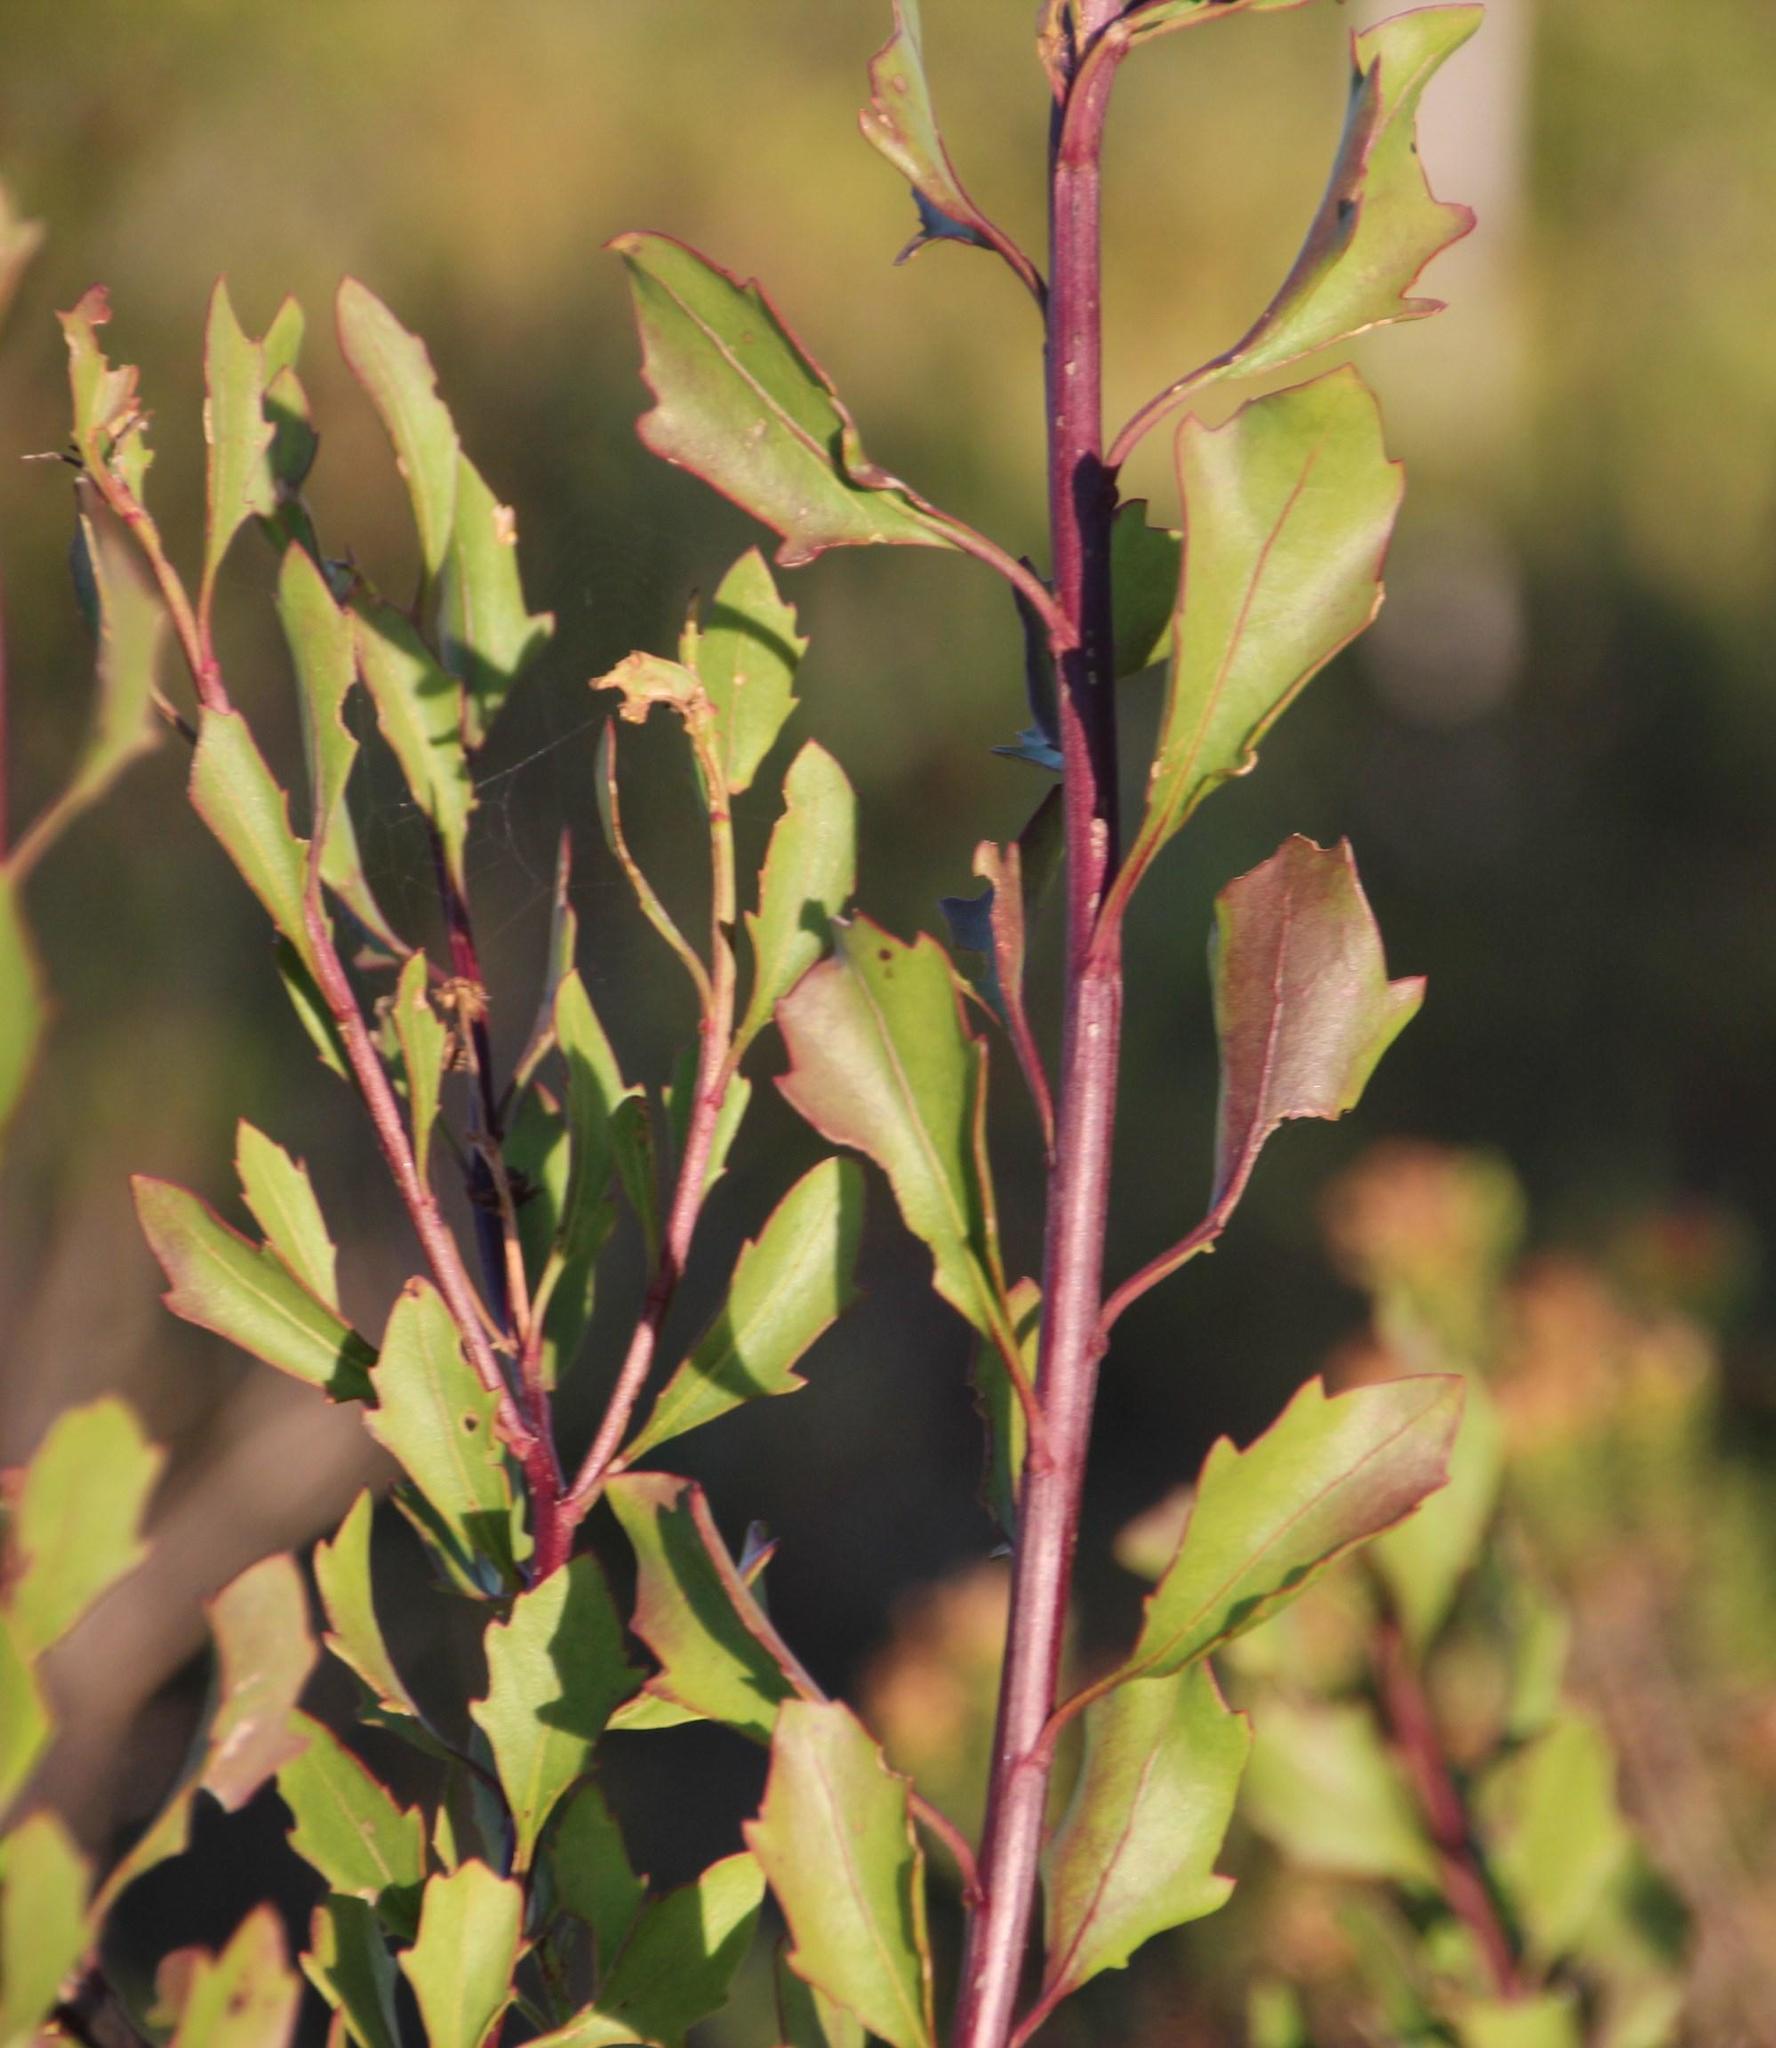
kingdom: Plantae
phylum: Tracheophyta
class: Magnoliopsida
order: Asterales
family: Asteraceae
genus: Osteospermum
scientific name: Osteospermum moniliferum
